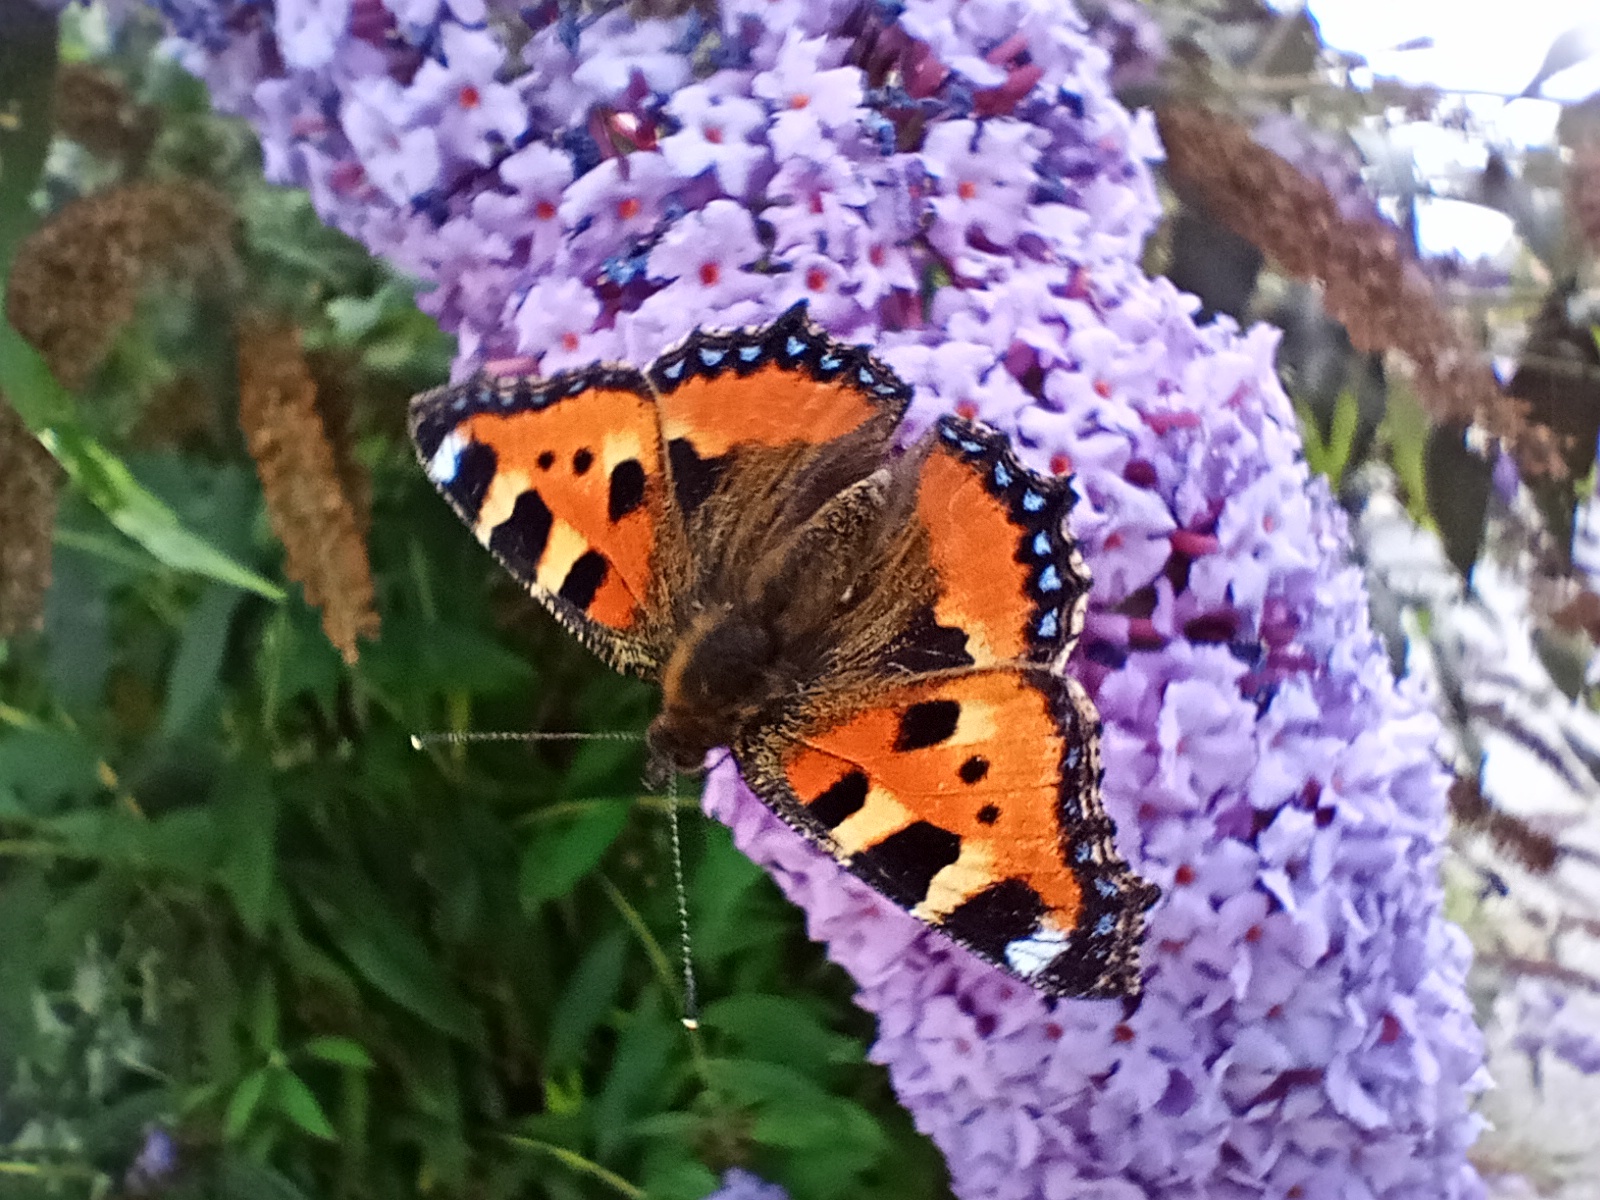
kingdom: Animalia
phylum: Arthropoda
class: Insecta
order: Lepidoptera
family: Nymphalidae
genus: Aglais
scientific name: Aglais urticae
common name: Small tortoiseshell
